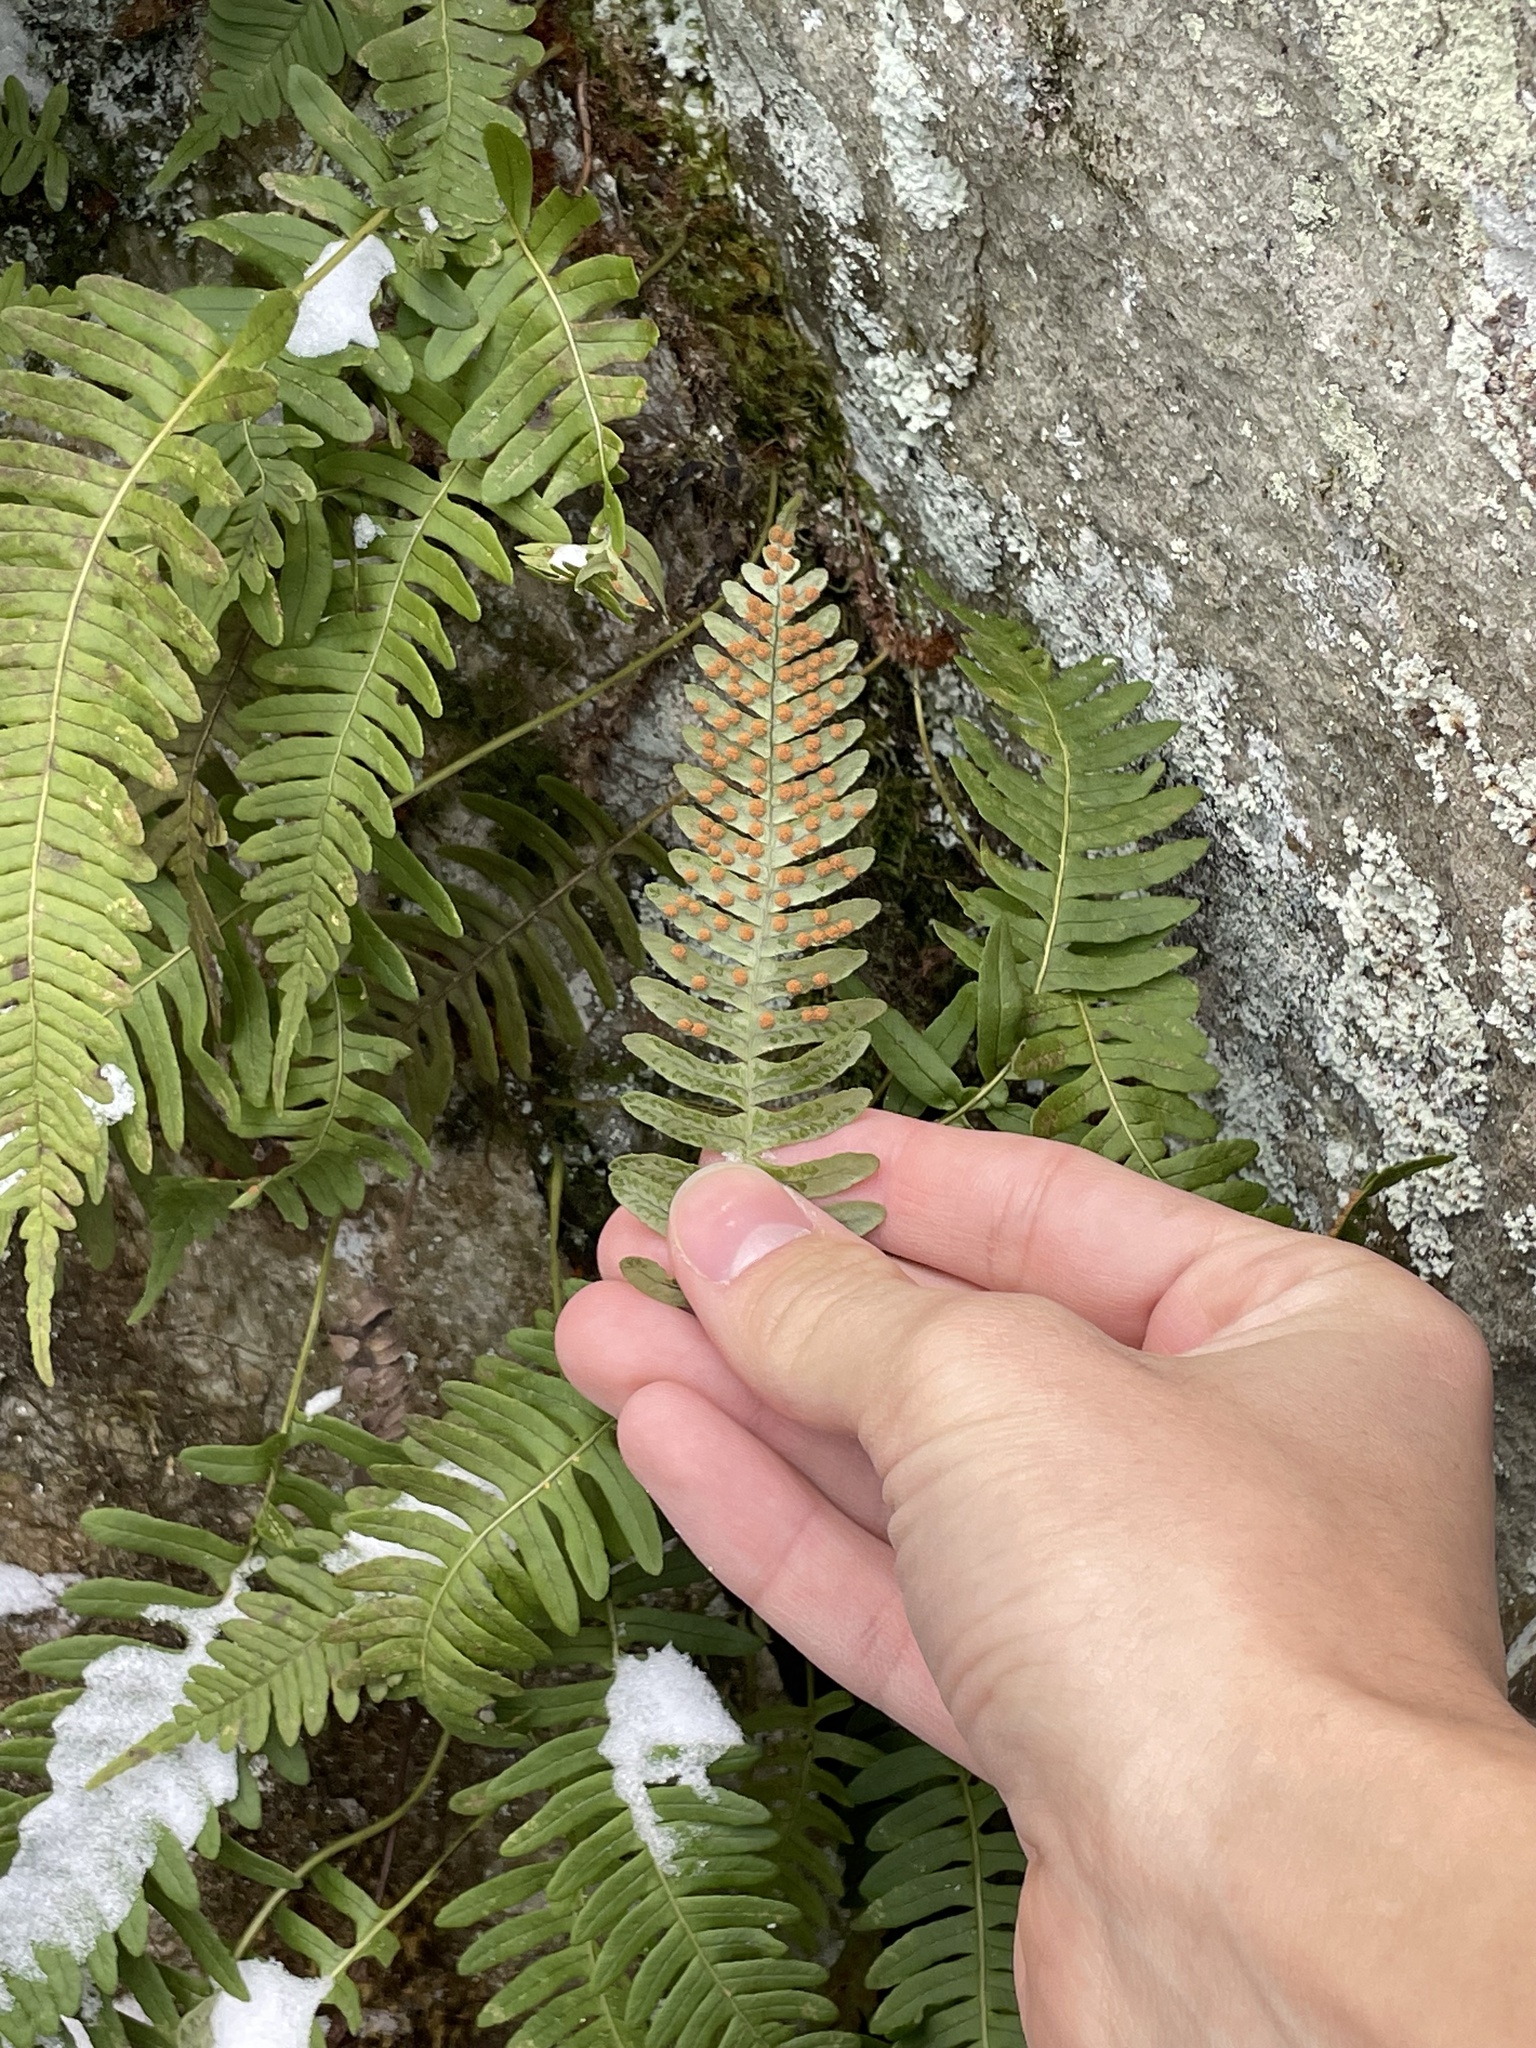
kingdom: Plantae
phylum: Tracheophyta
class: Polypodiopsida
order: Polypodiales
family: Polypodiaceae
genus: Polypodium
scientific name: Polypodium appalachianum
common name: Appalachian polypody
